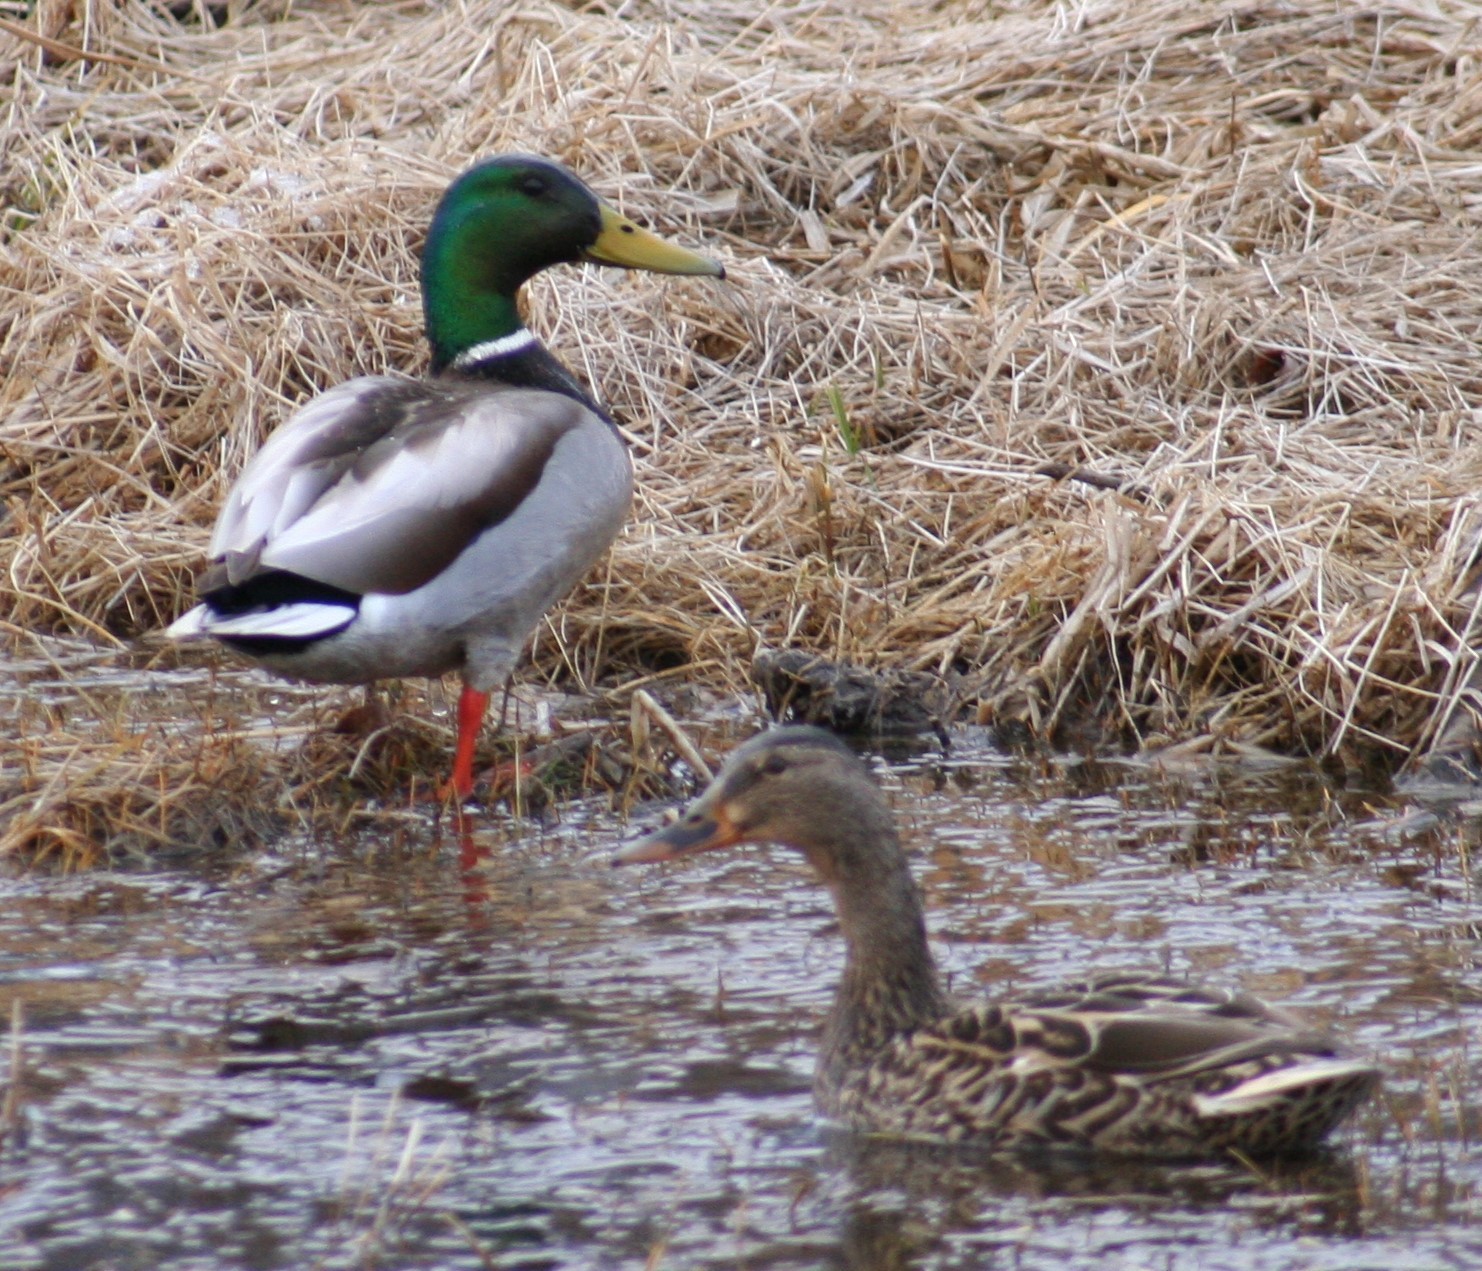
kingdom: Animalia
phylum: Chordata
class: Aves
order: Anseriformes
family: Anatidae
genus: Anas
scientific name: Anas platyrhynchos
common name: Mallard
